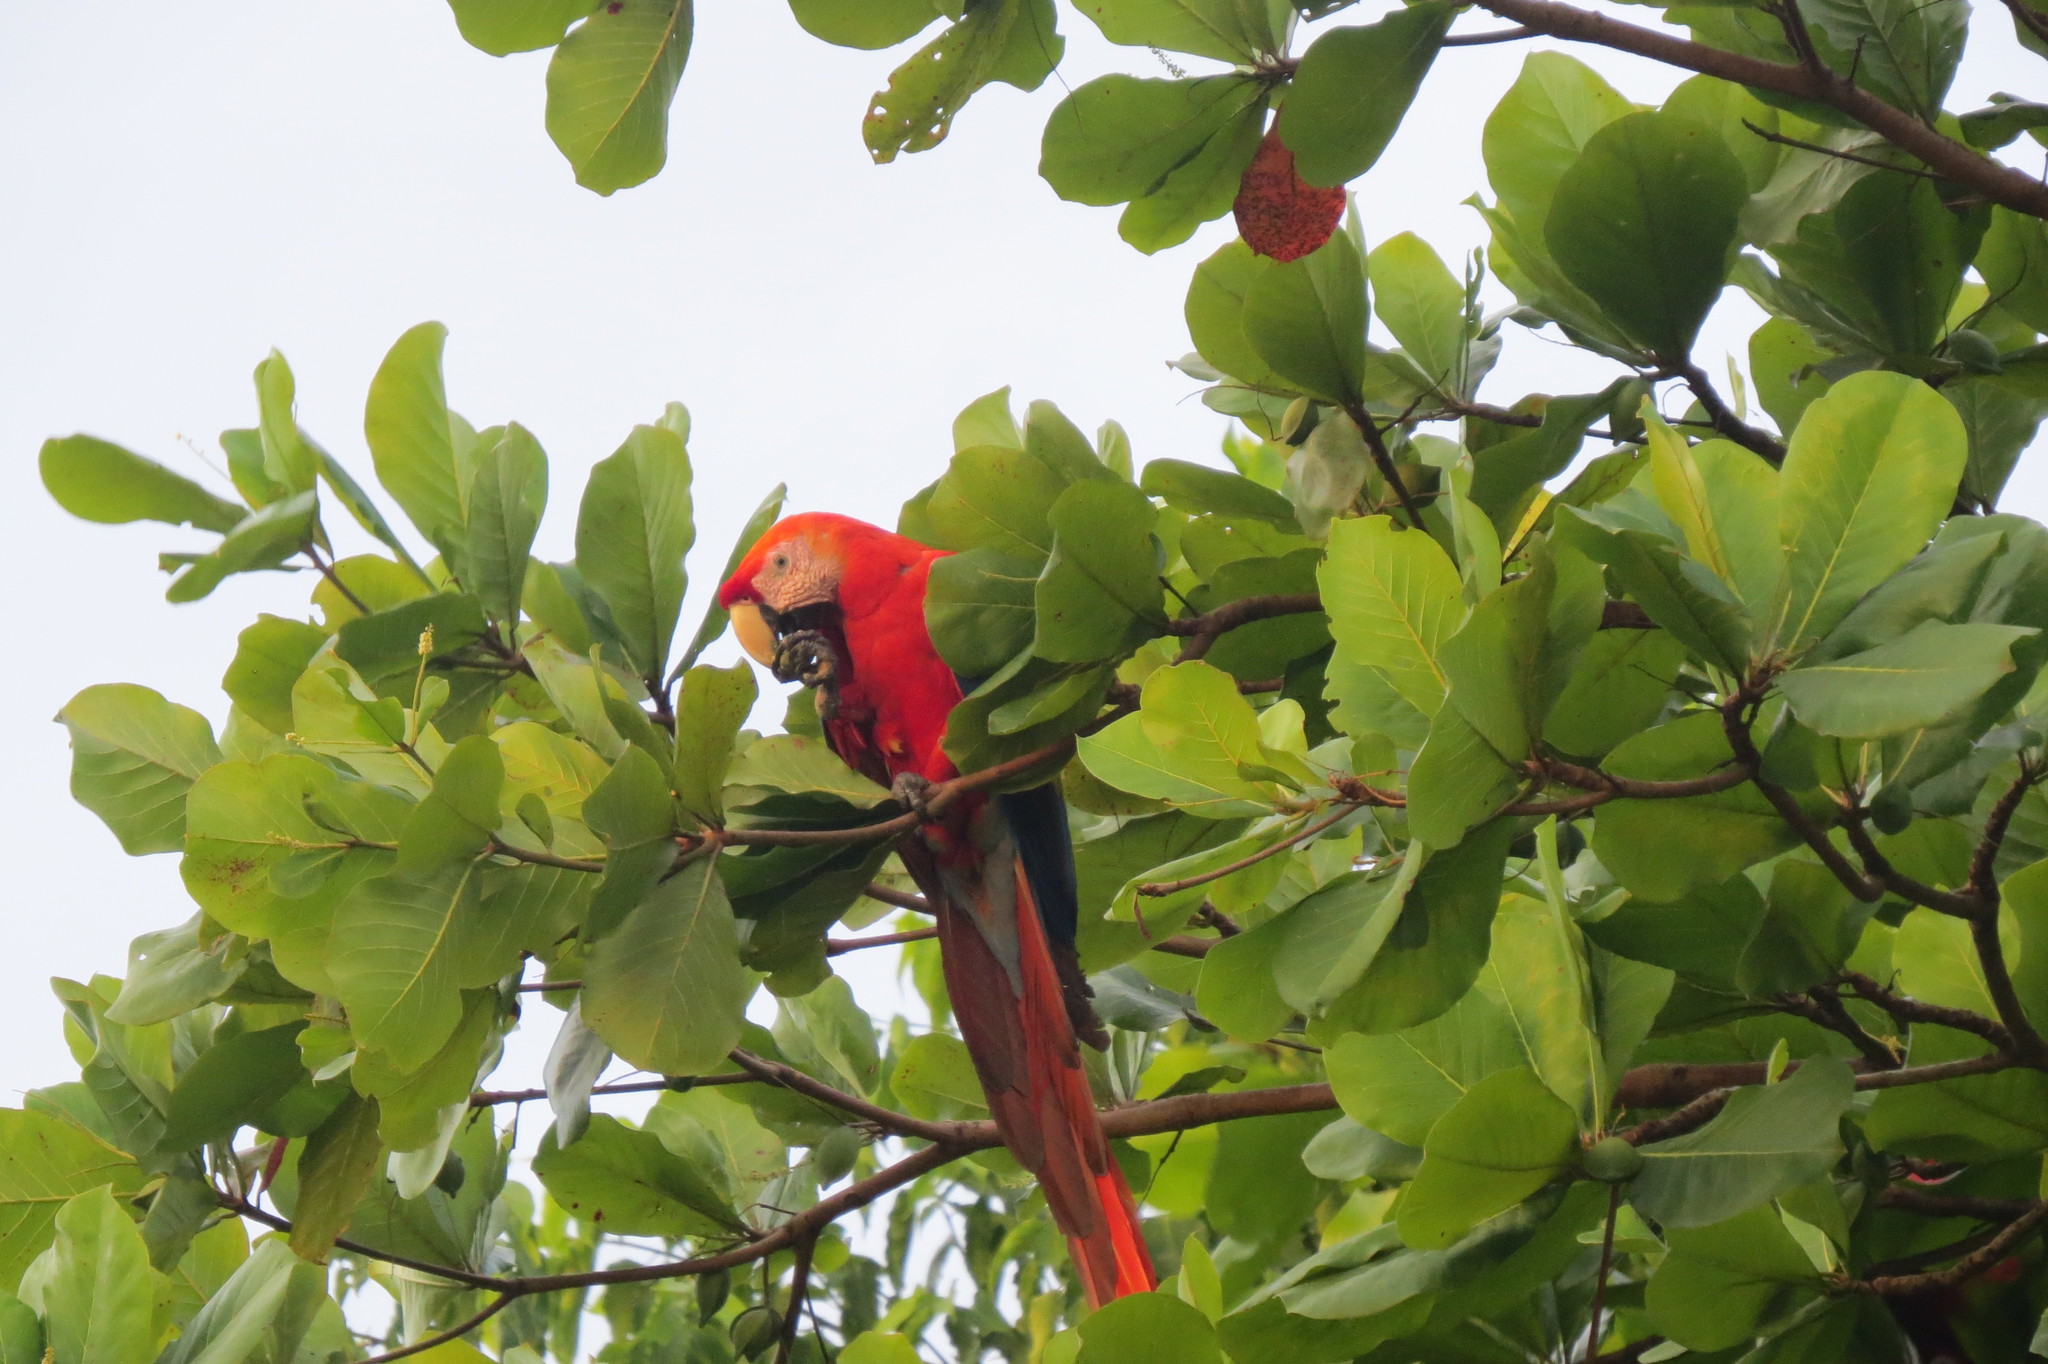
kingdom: Animalia
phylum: Chordata
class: Aves
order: Psittaciformes
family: Psittacidae
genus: Ara
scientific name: Ara macao
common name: Scarlet macaw
